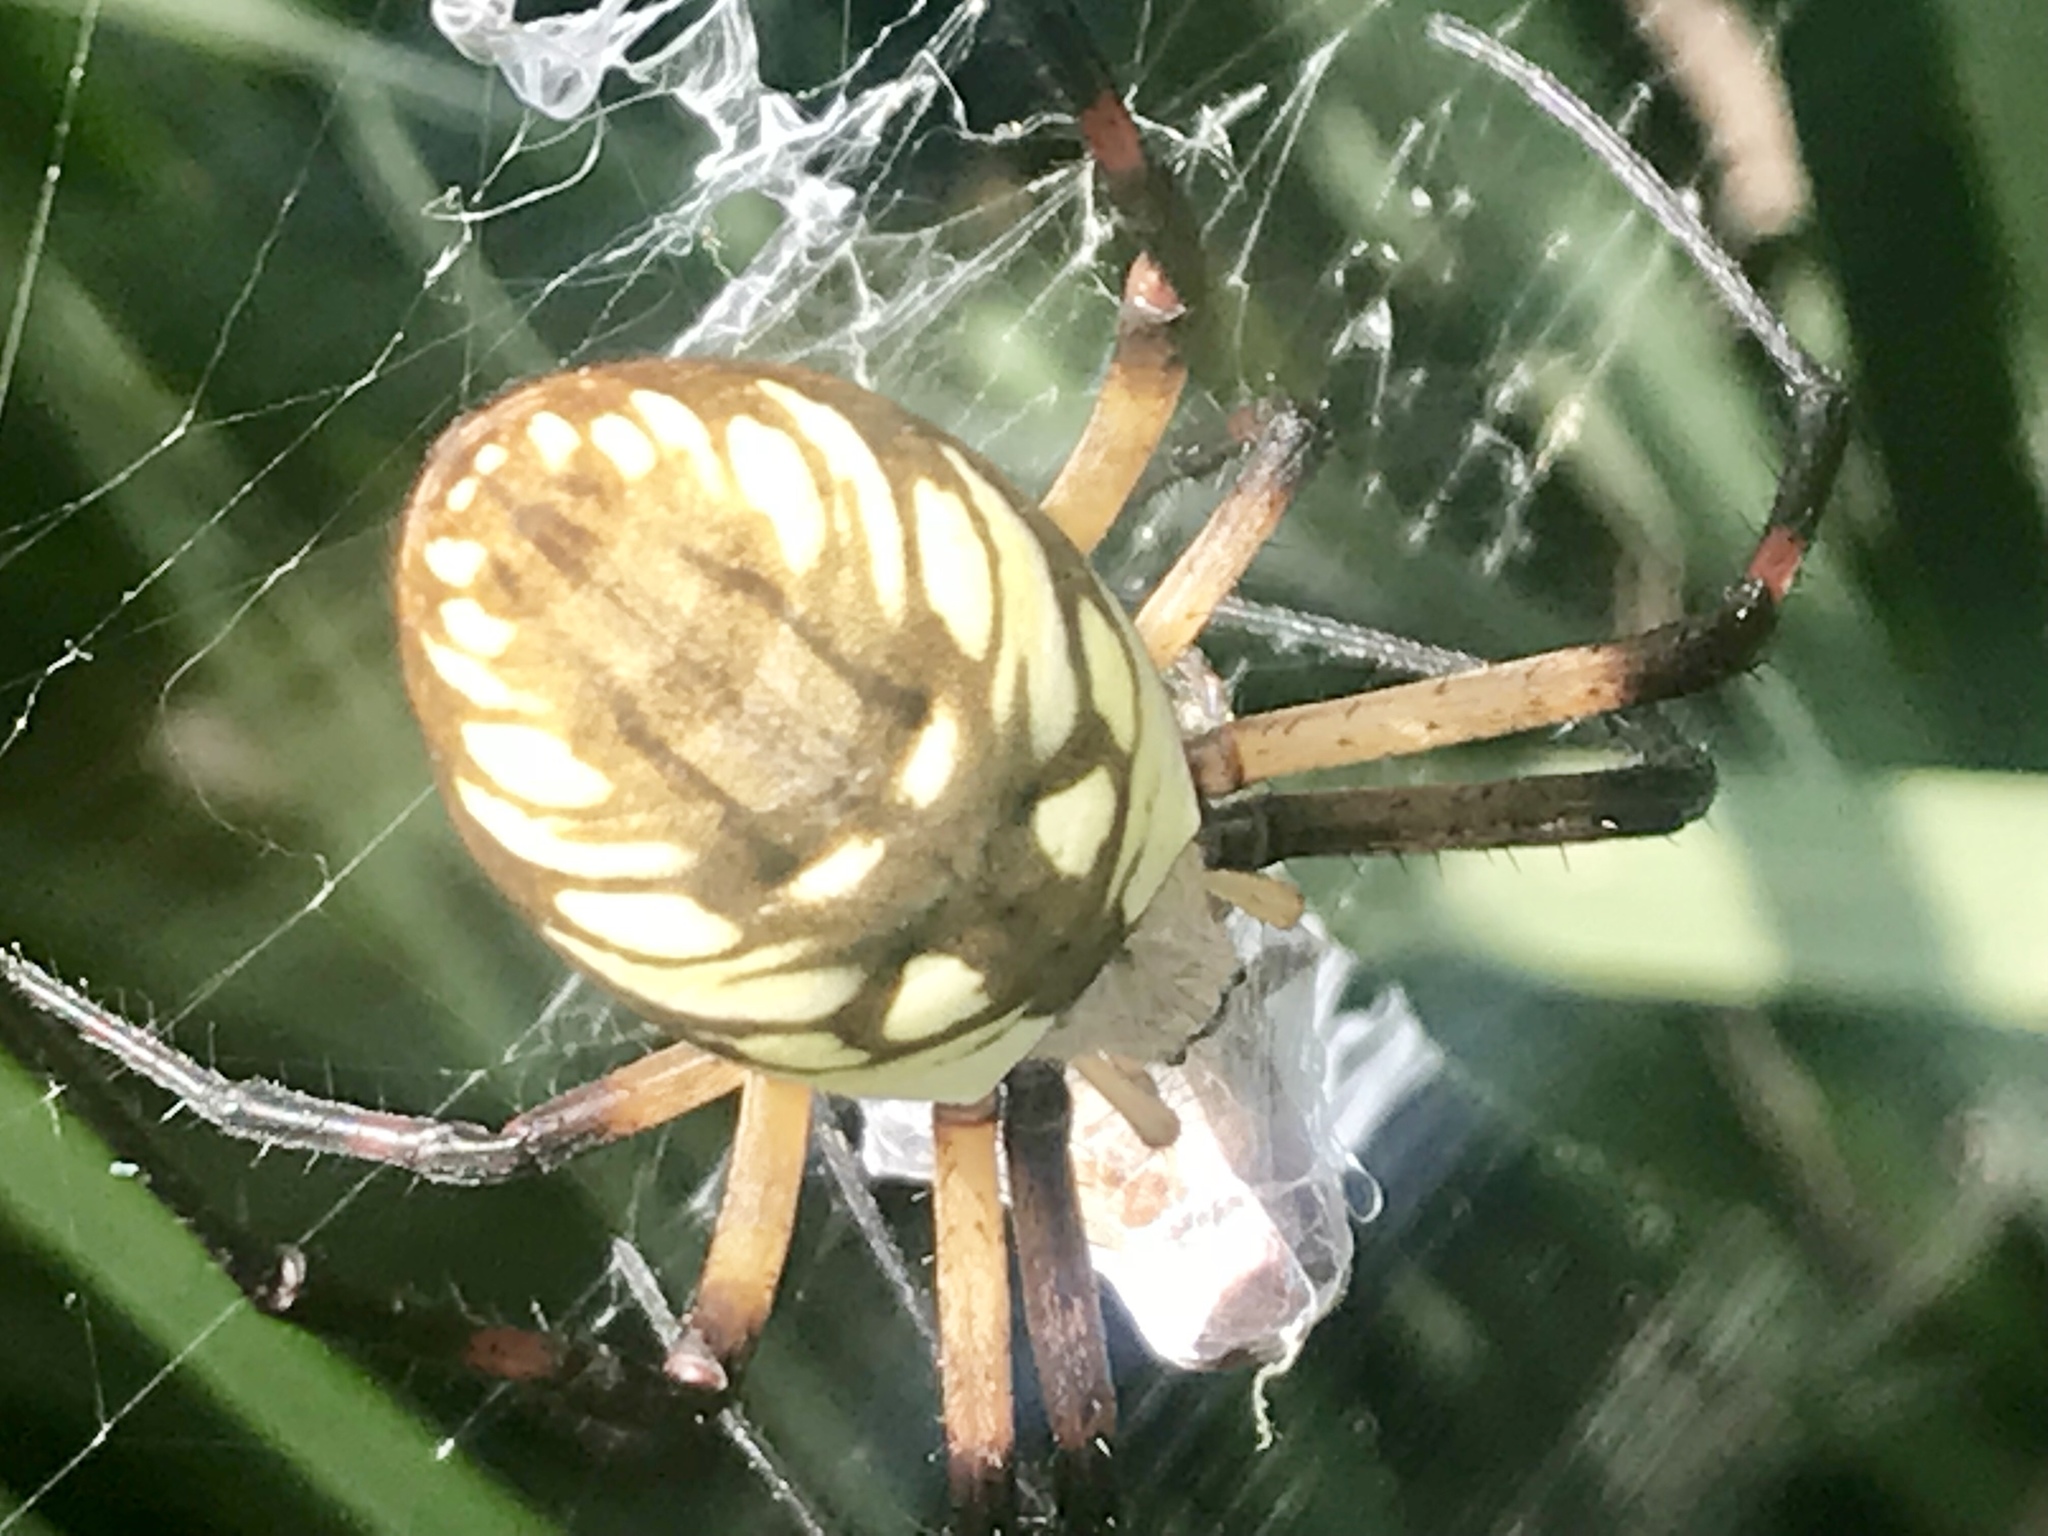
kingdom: Animalia
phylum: Arthropoda
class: Arachnida
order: Araneae
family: Araneidae
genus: Argiope
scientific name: Argiope aurantia
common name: Orb weavers
